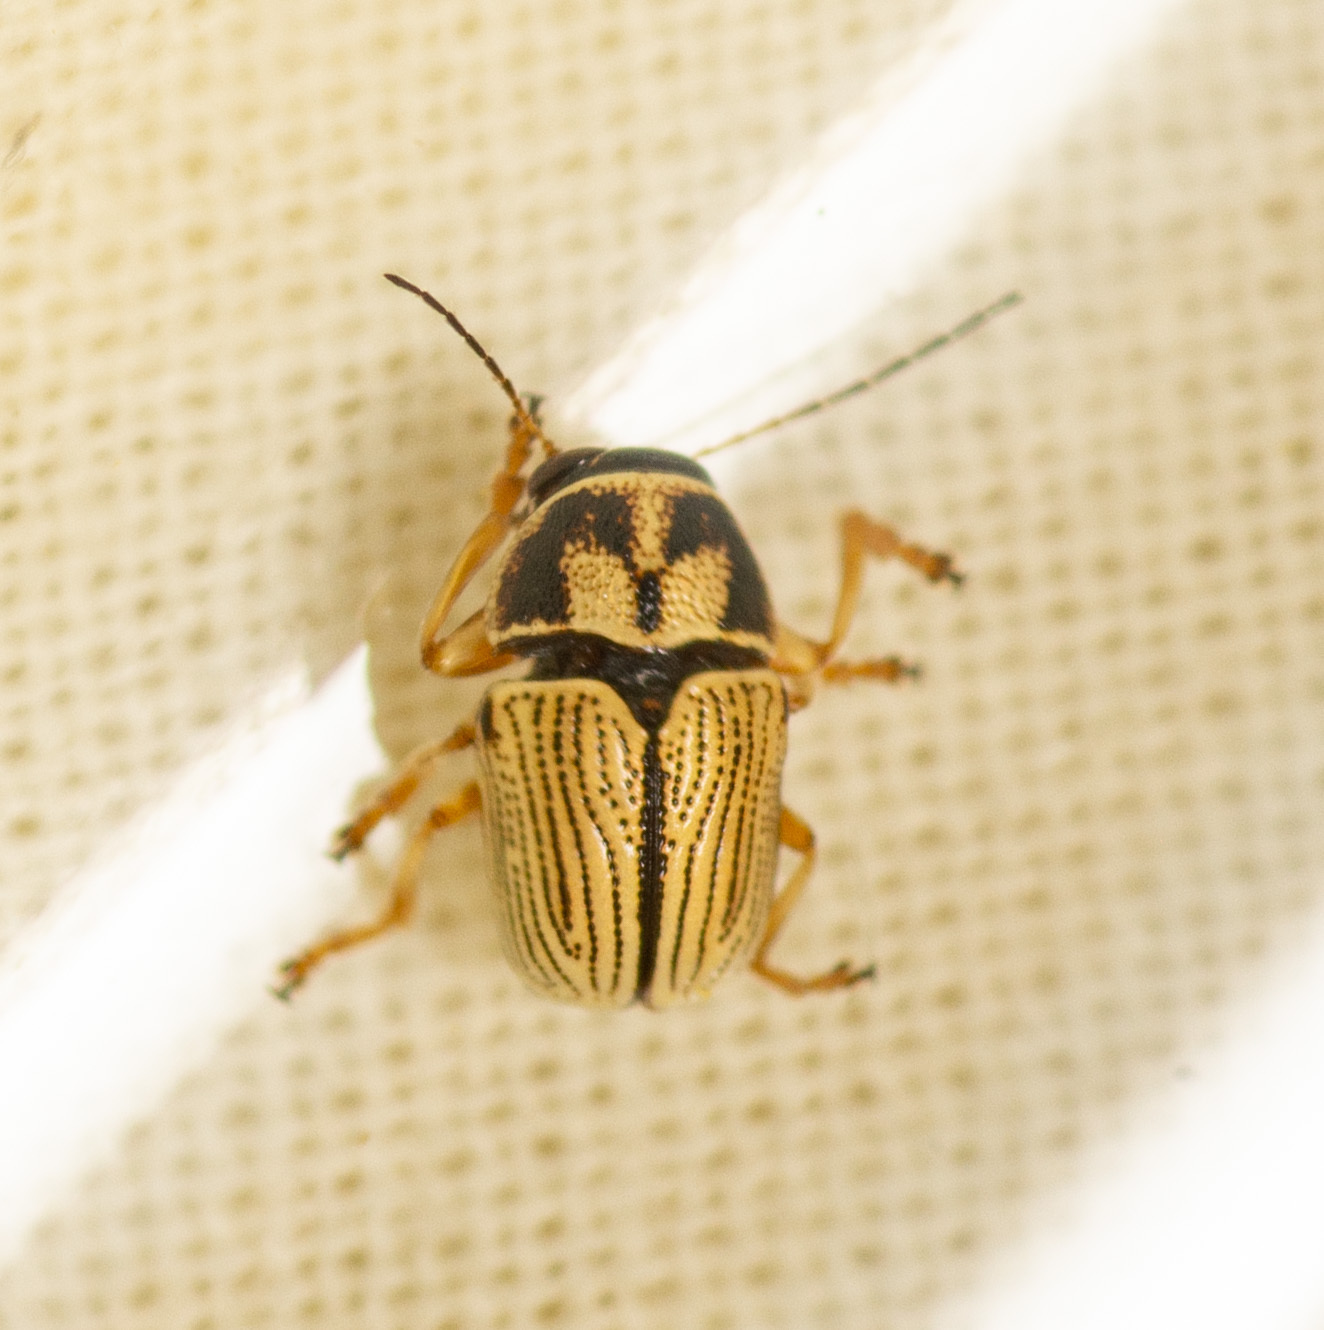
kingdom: Animalia
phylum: Arthropoda
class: Insecta
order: Coleoptera
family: Chrysomelidae
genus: Pachybrachis
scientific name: Pachybrachis othonus
